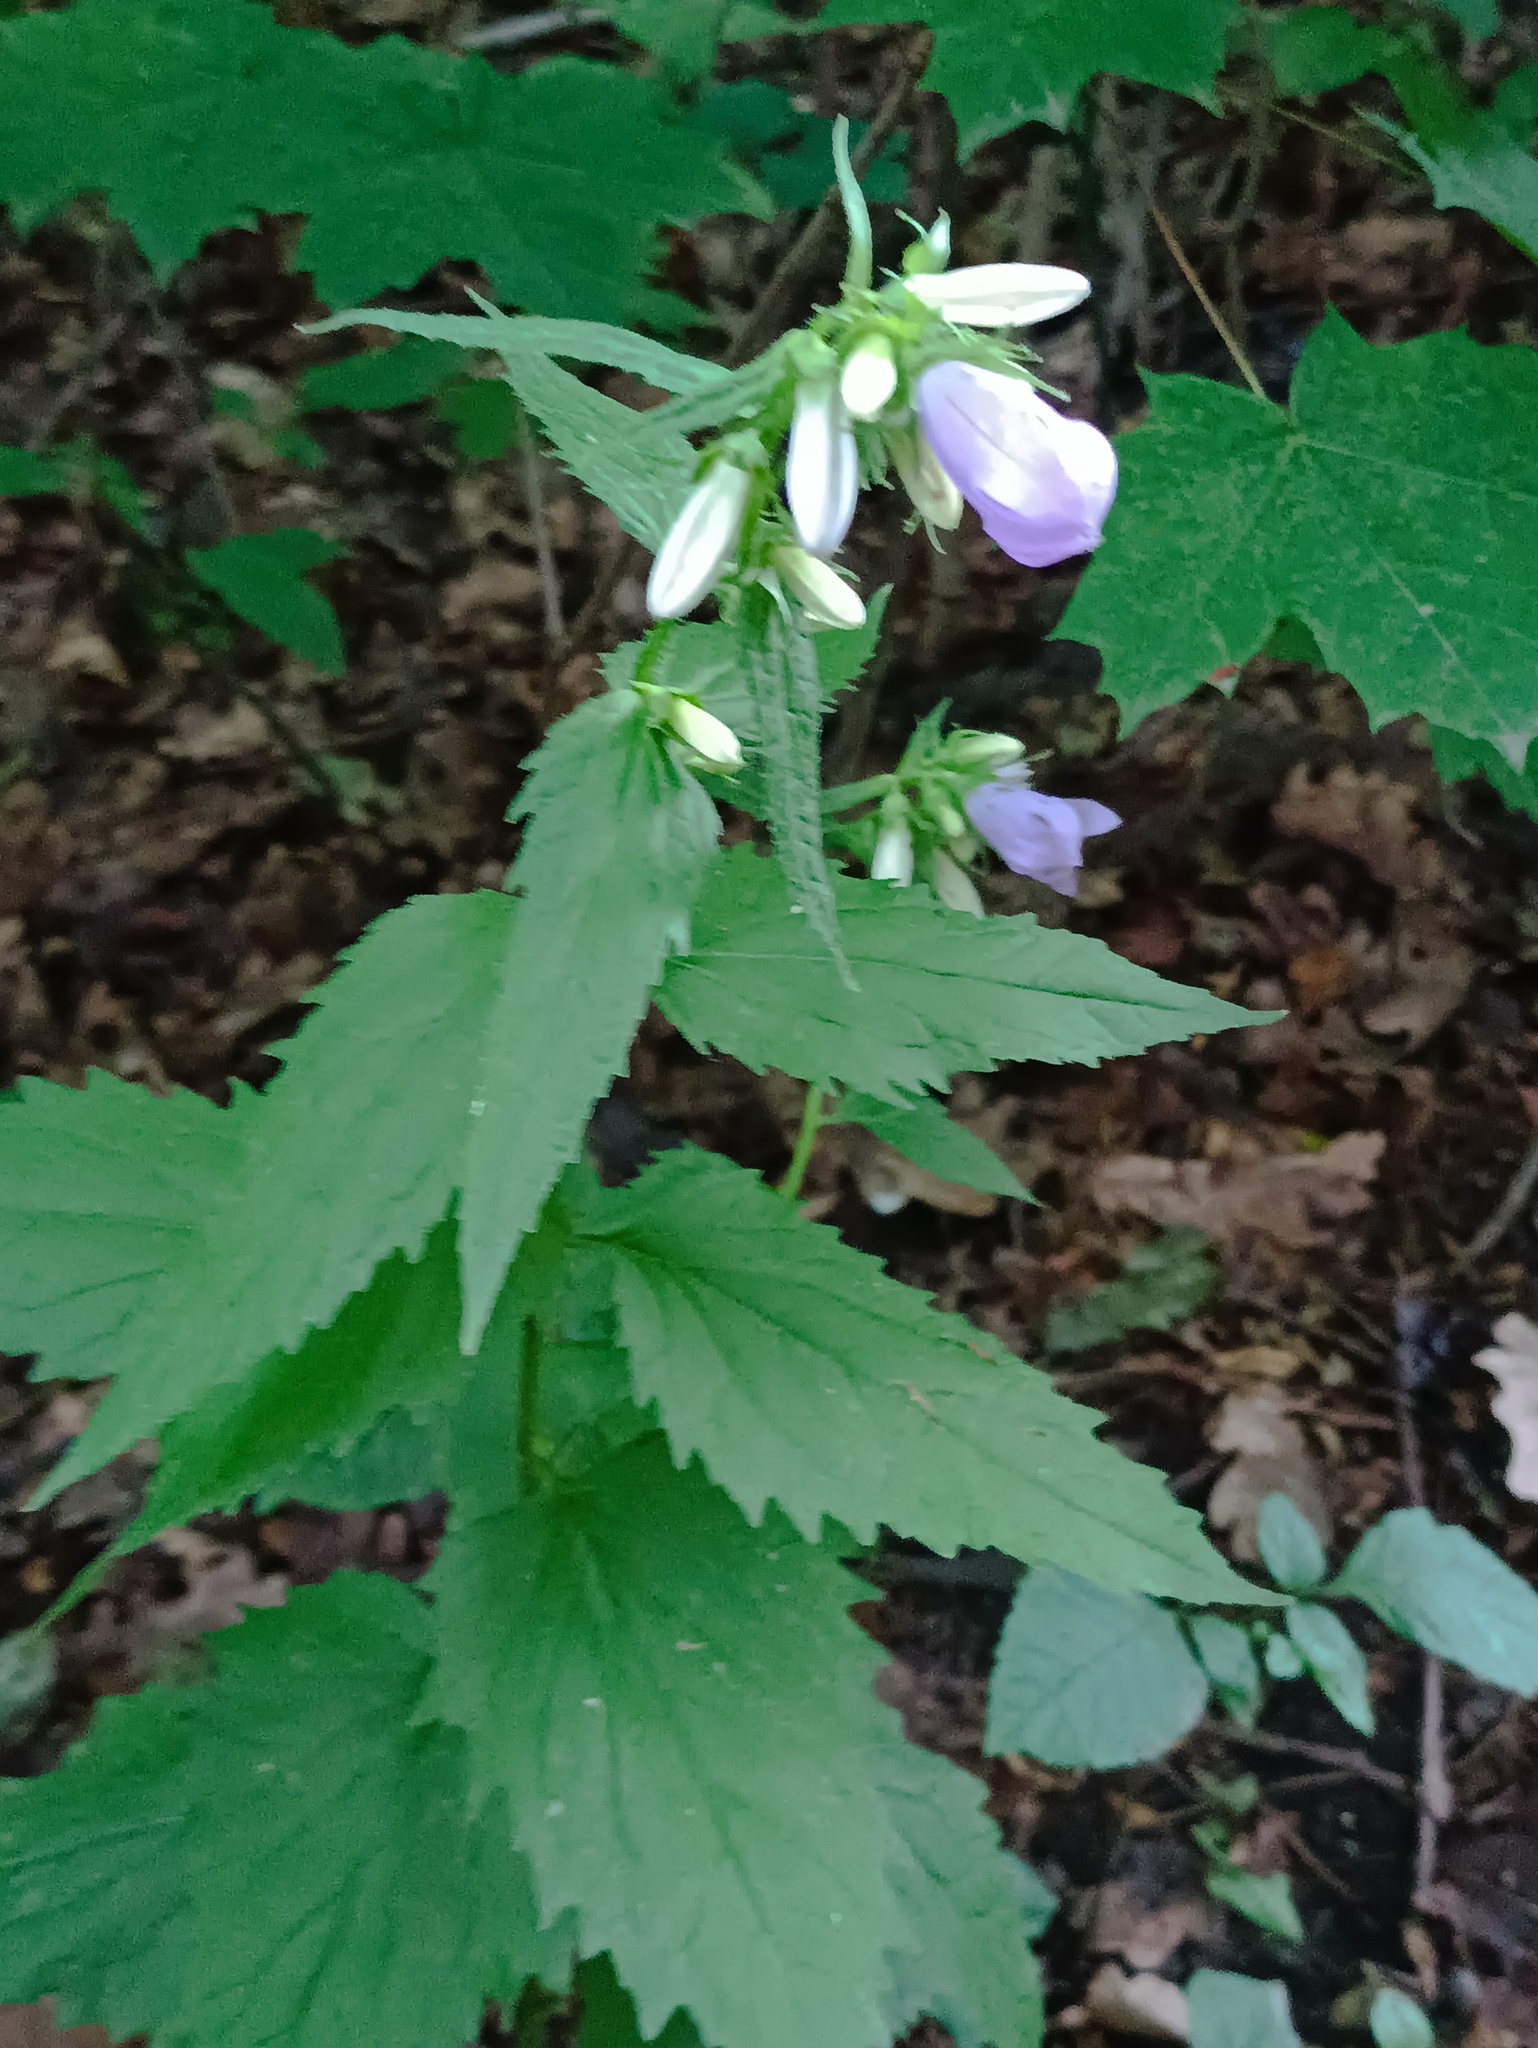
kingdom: Plantae
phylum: Tracheophyta
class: Magnoliopsida
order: Asterales
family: Campanulaceae
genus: Campanula
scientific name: Campanula trachelium
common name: Nettle-leaved bellflower
